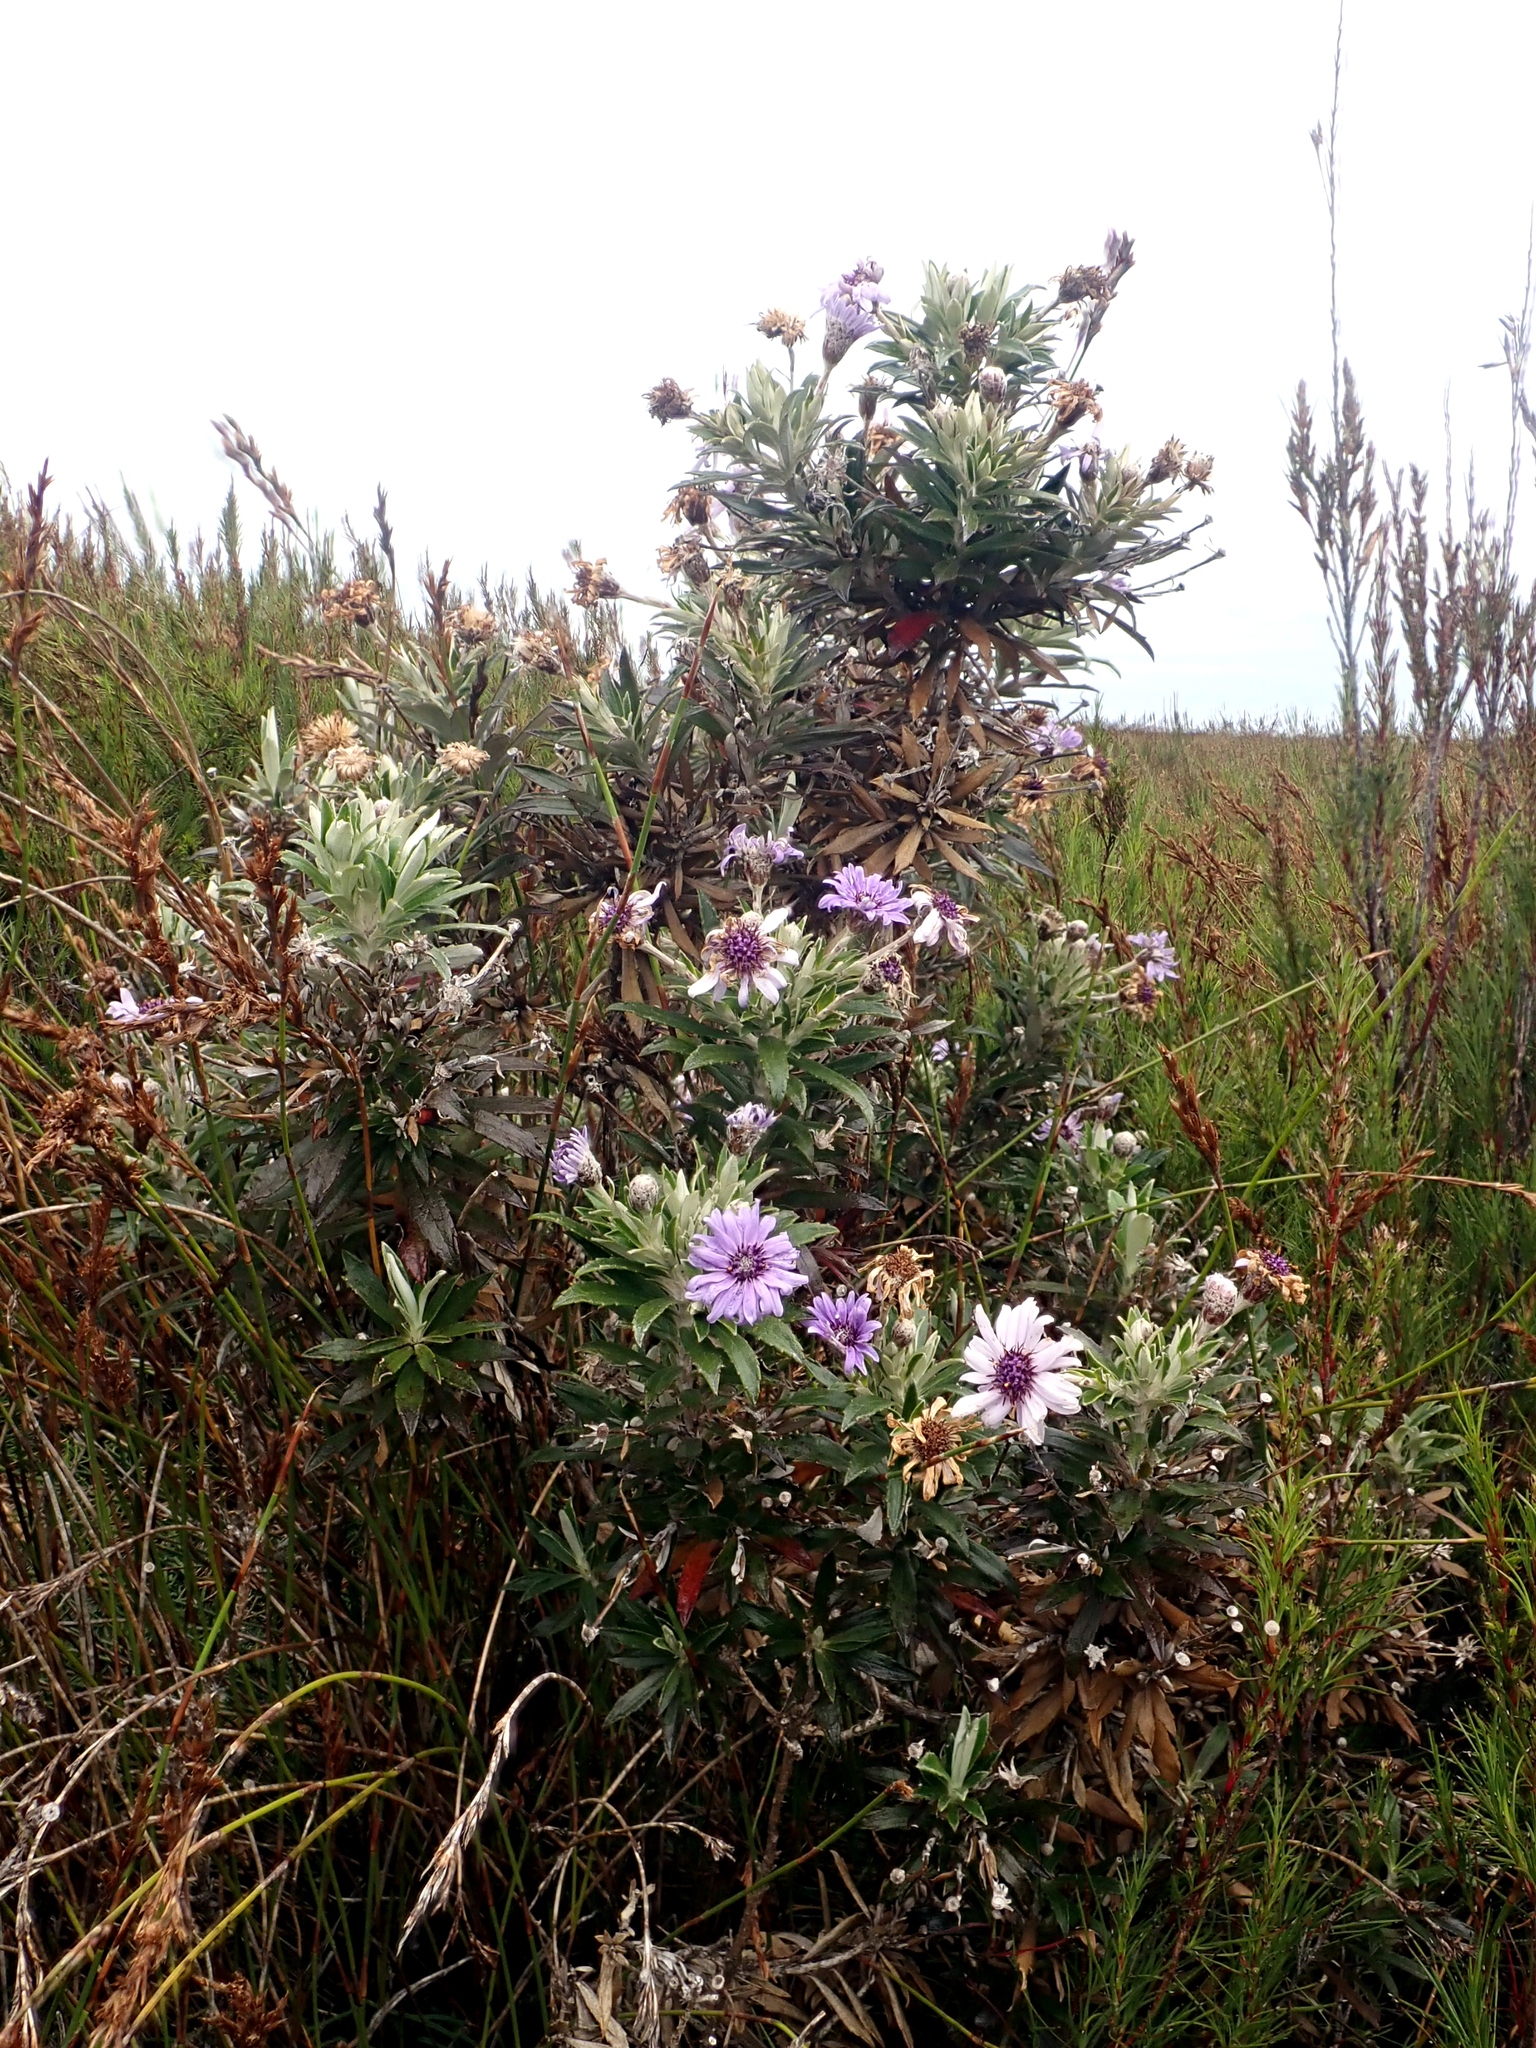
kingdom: Plantae
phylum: Tracheophyta
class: Magnoliopsida
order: Asterales
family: Asteraceae
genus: Macrolearia
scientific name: Macrolearia semidentata
